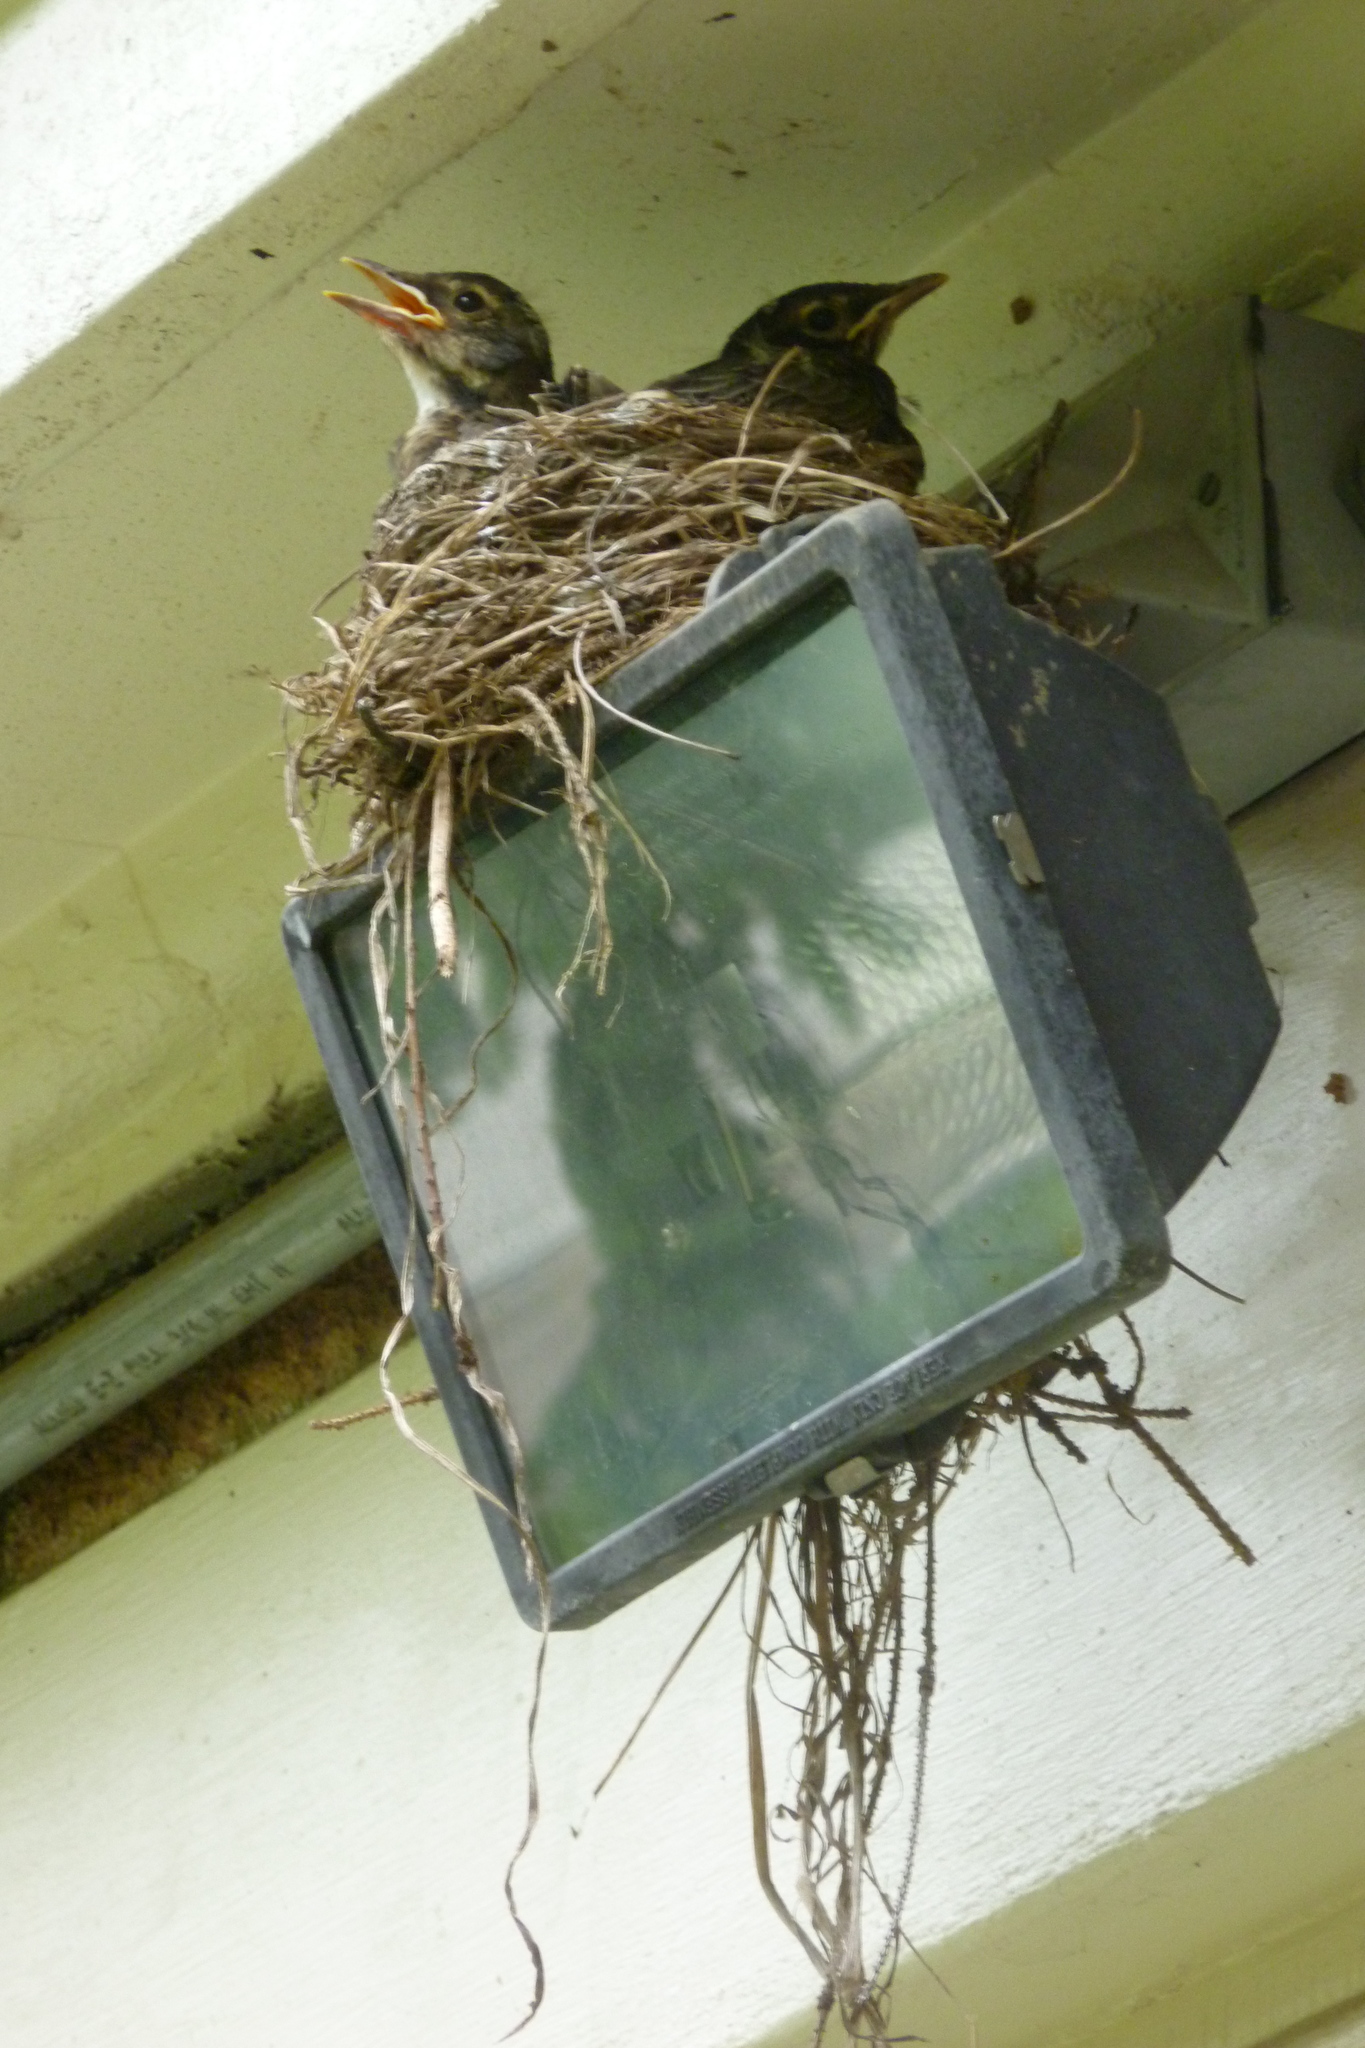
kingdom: Animalia
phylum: Chordata
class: Aves
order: Passeriformes
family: Turdidae
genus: Turdus
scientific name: Turdus migratorius
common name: American robin
